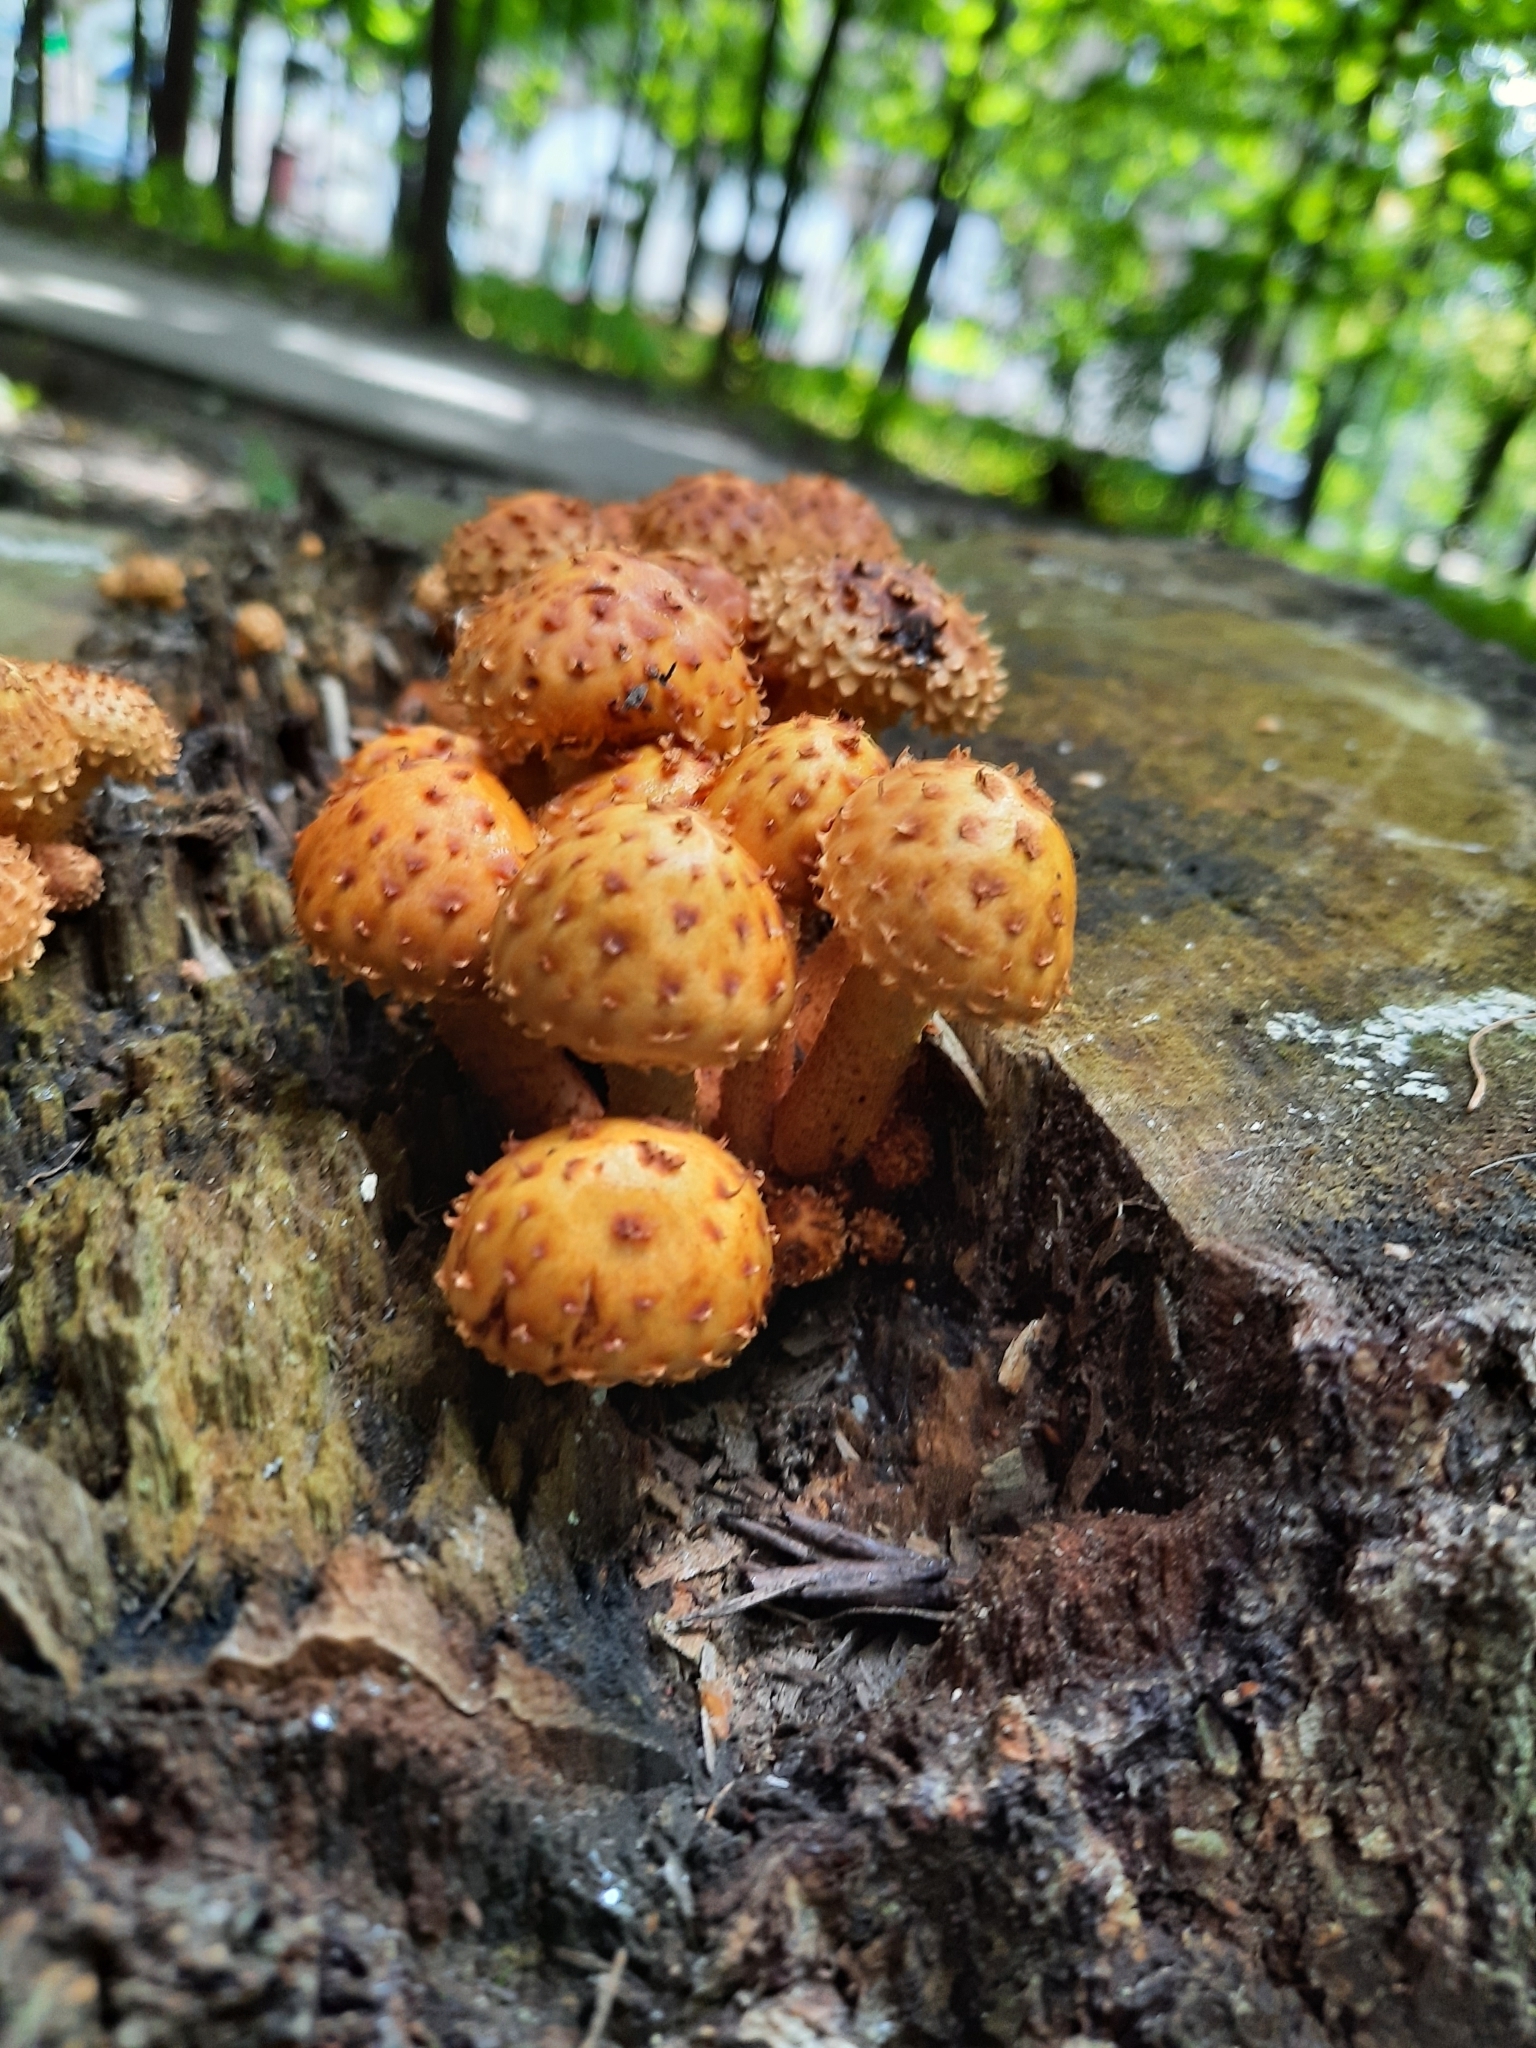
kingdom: Fungi
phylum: Basidiomycota
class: Agaricomycetes
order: Agaricales
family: Strophariaceae
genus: Pholiota
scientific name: Pholiota aurivella
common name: Golden scalycap
